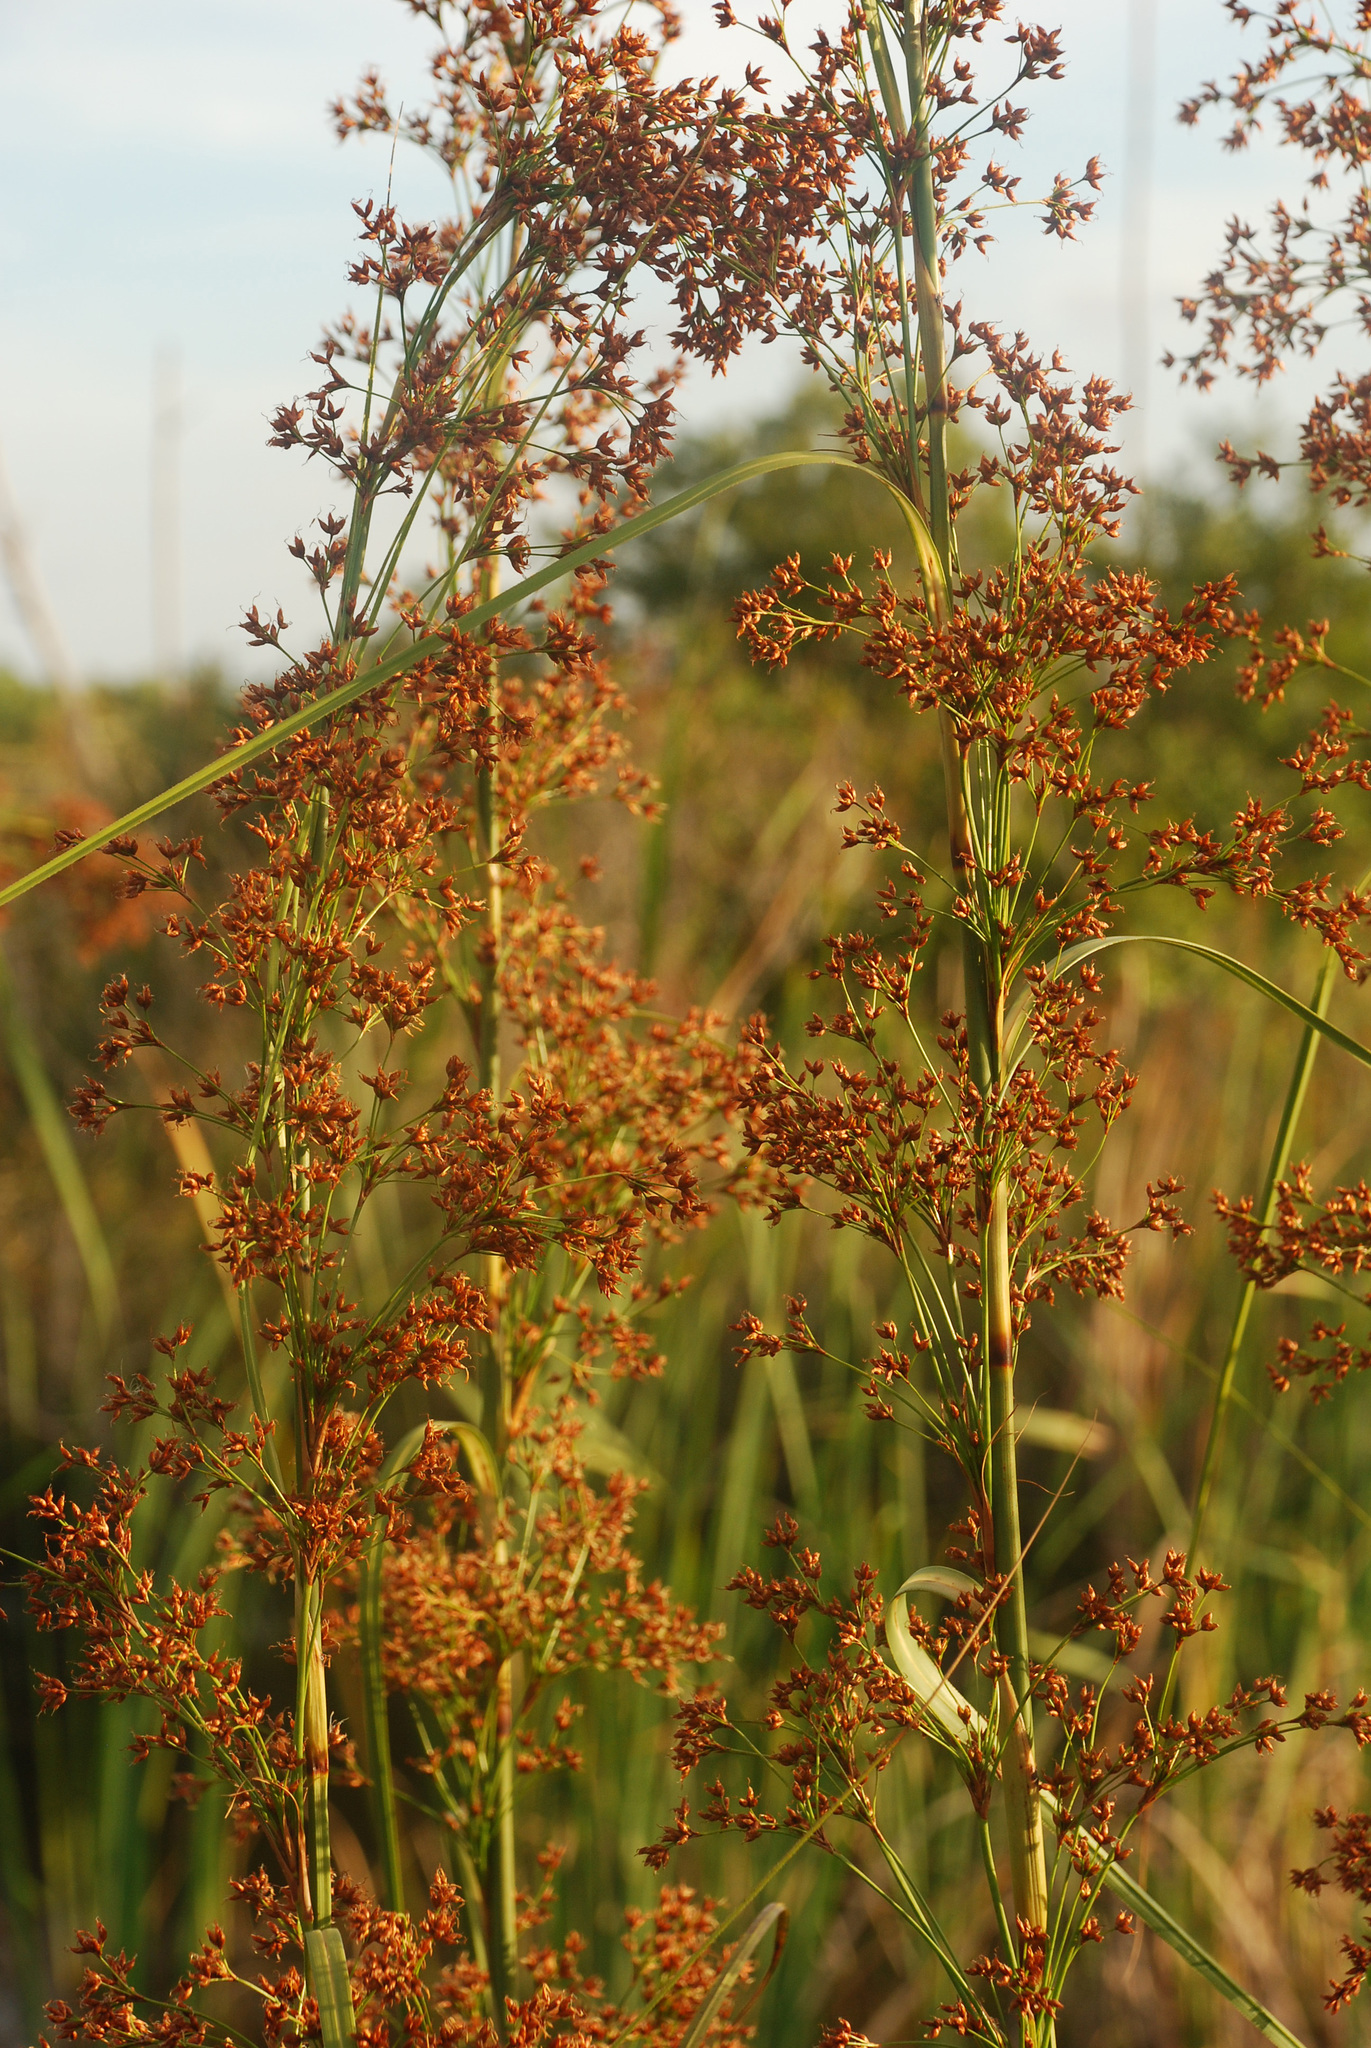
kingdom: Plantae
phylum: Tracheophyta
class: Liliopsida
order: Poales
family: Cyperaceae
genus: Cladium
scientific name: Cladium mariscus
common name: Great fen-sedge
